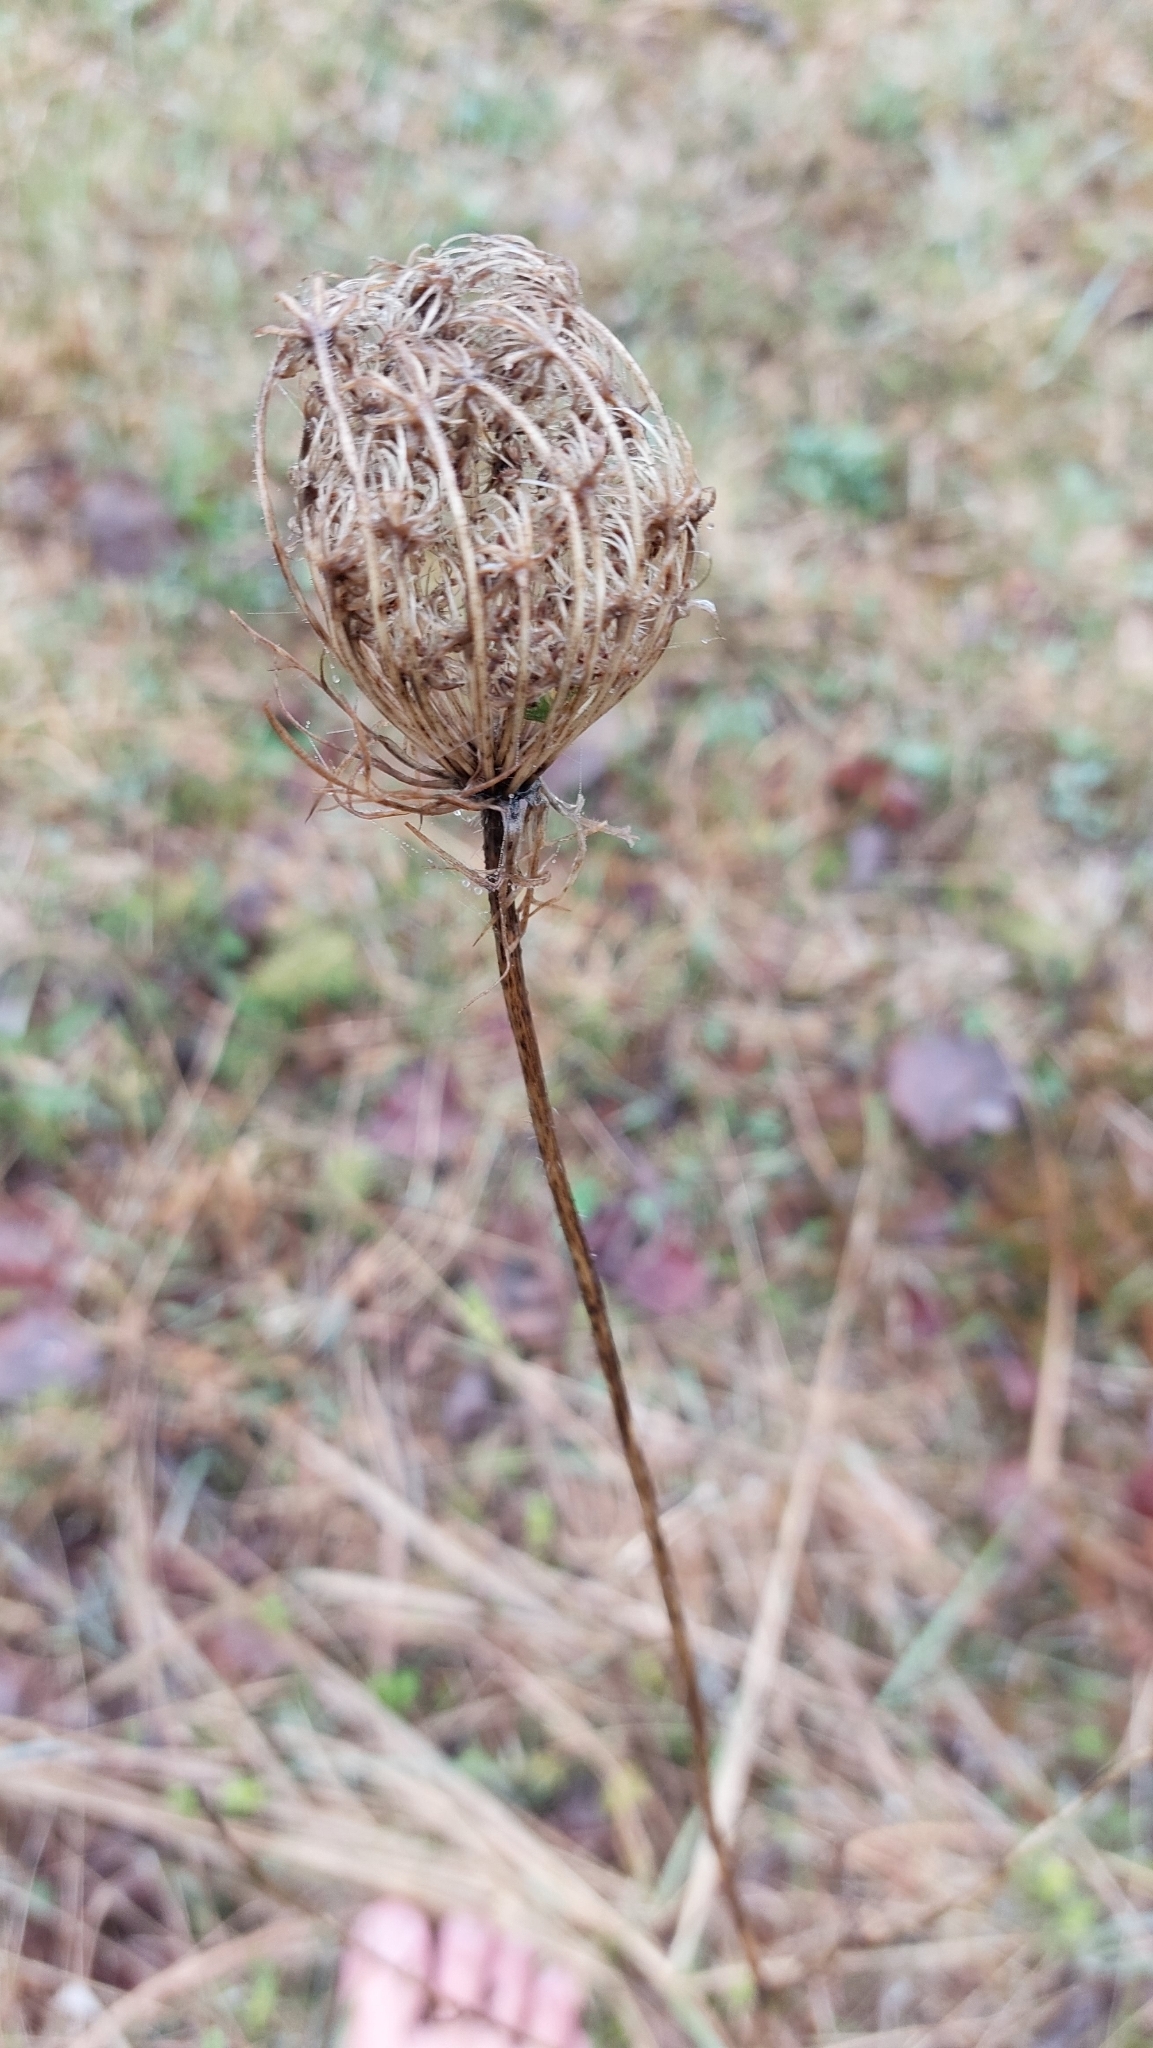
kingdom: Plantae
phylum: Tracheophyta
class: Magnoliopsida
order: Apiales
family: Apiaceae
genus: Daucus
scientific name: Daucus carota
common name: Wild carrot
